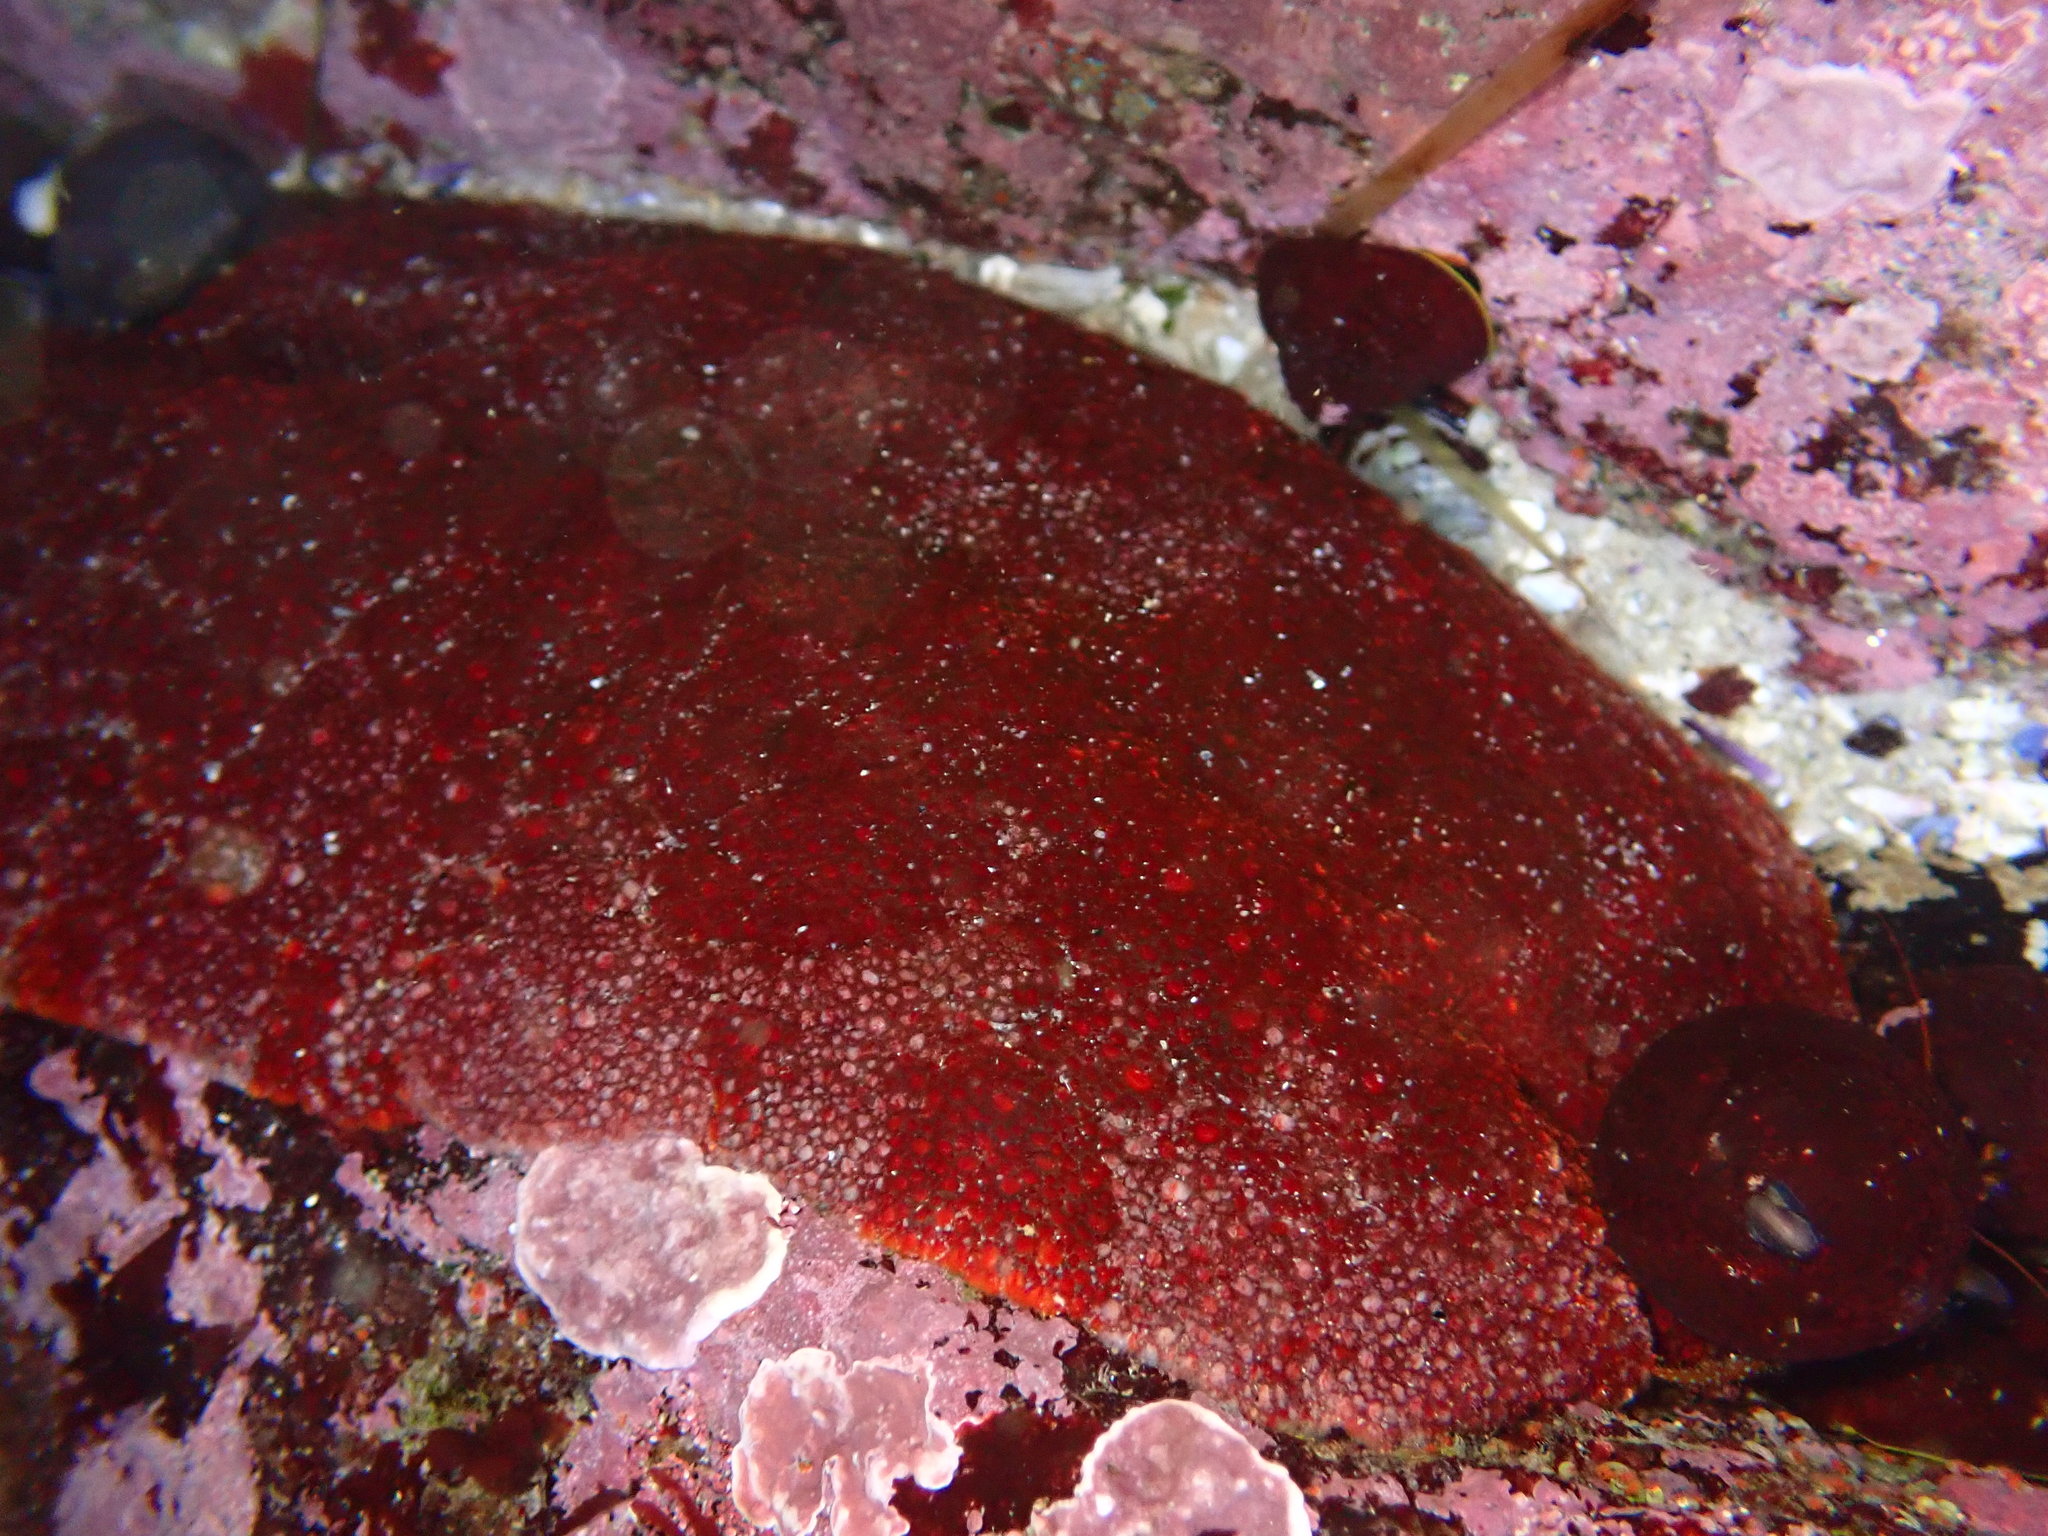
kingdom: Animalia
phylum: Mollusca
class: Polyplacophora
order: Chitonida
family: Acanthochitonidae
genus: Cryptochiton
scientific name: Cryptochiton stelleri
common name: Giant pacific chiton
